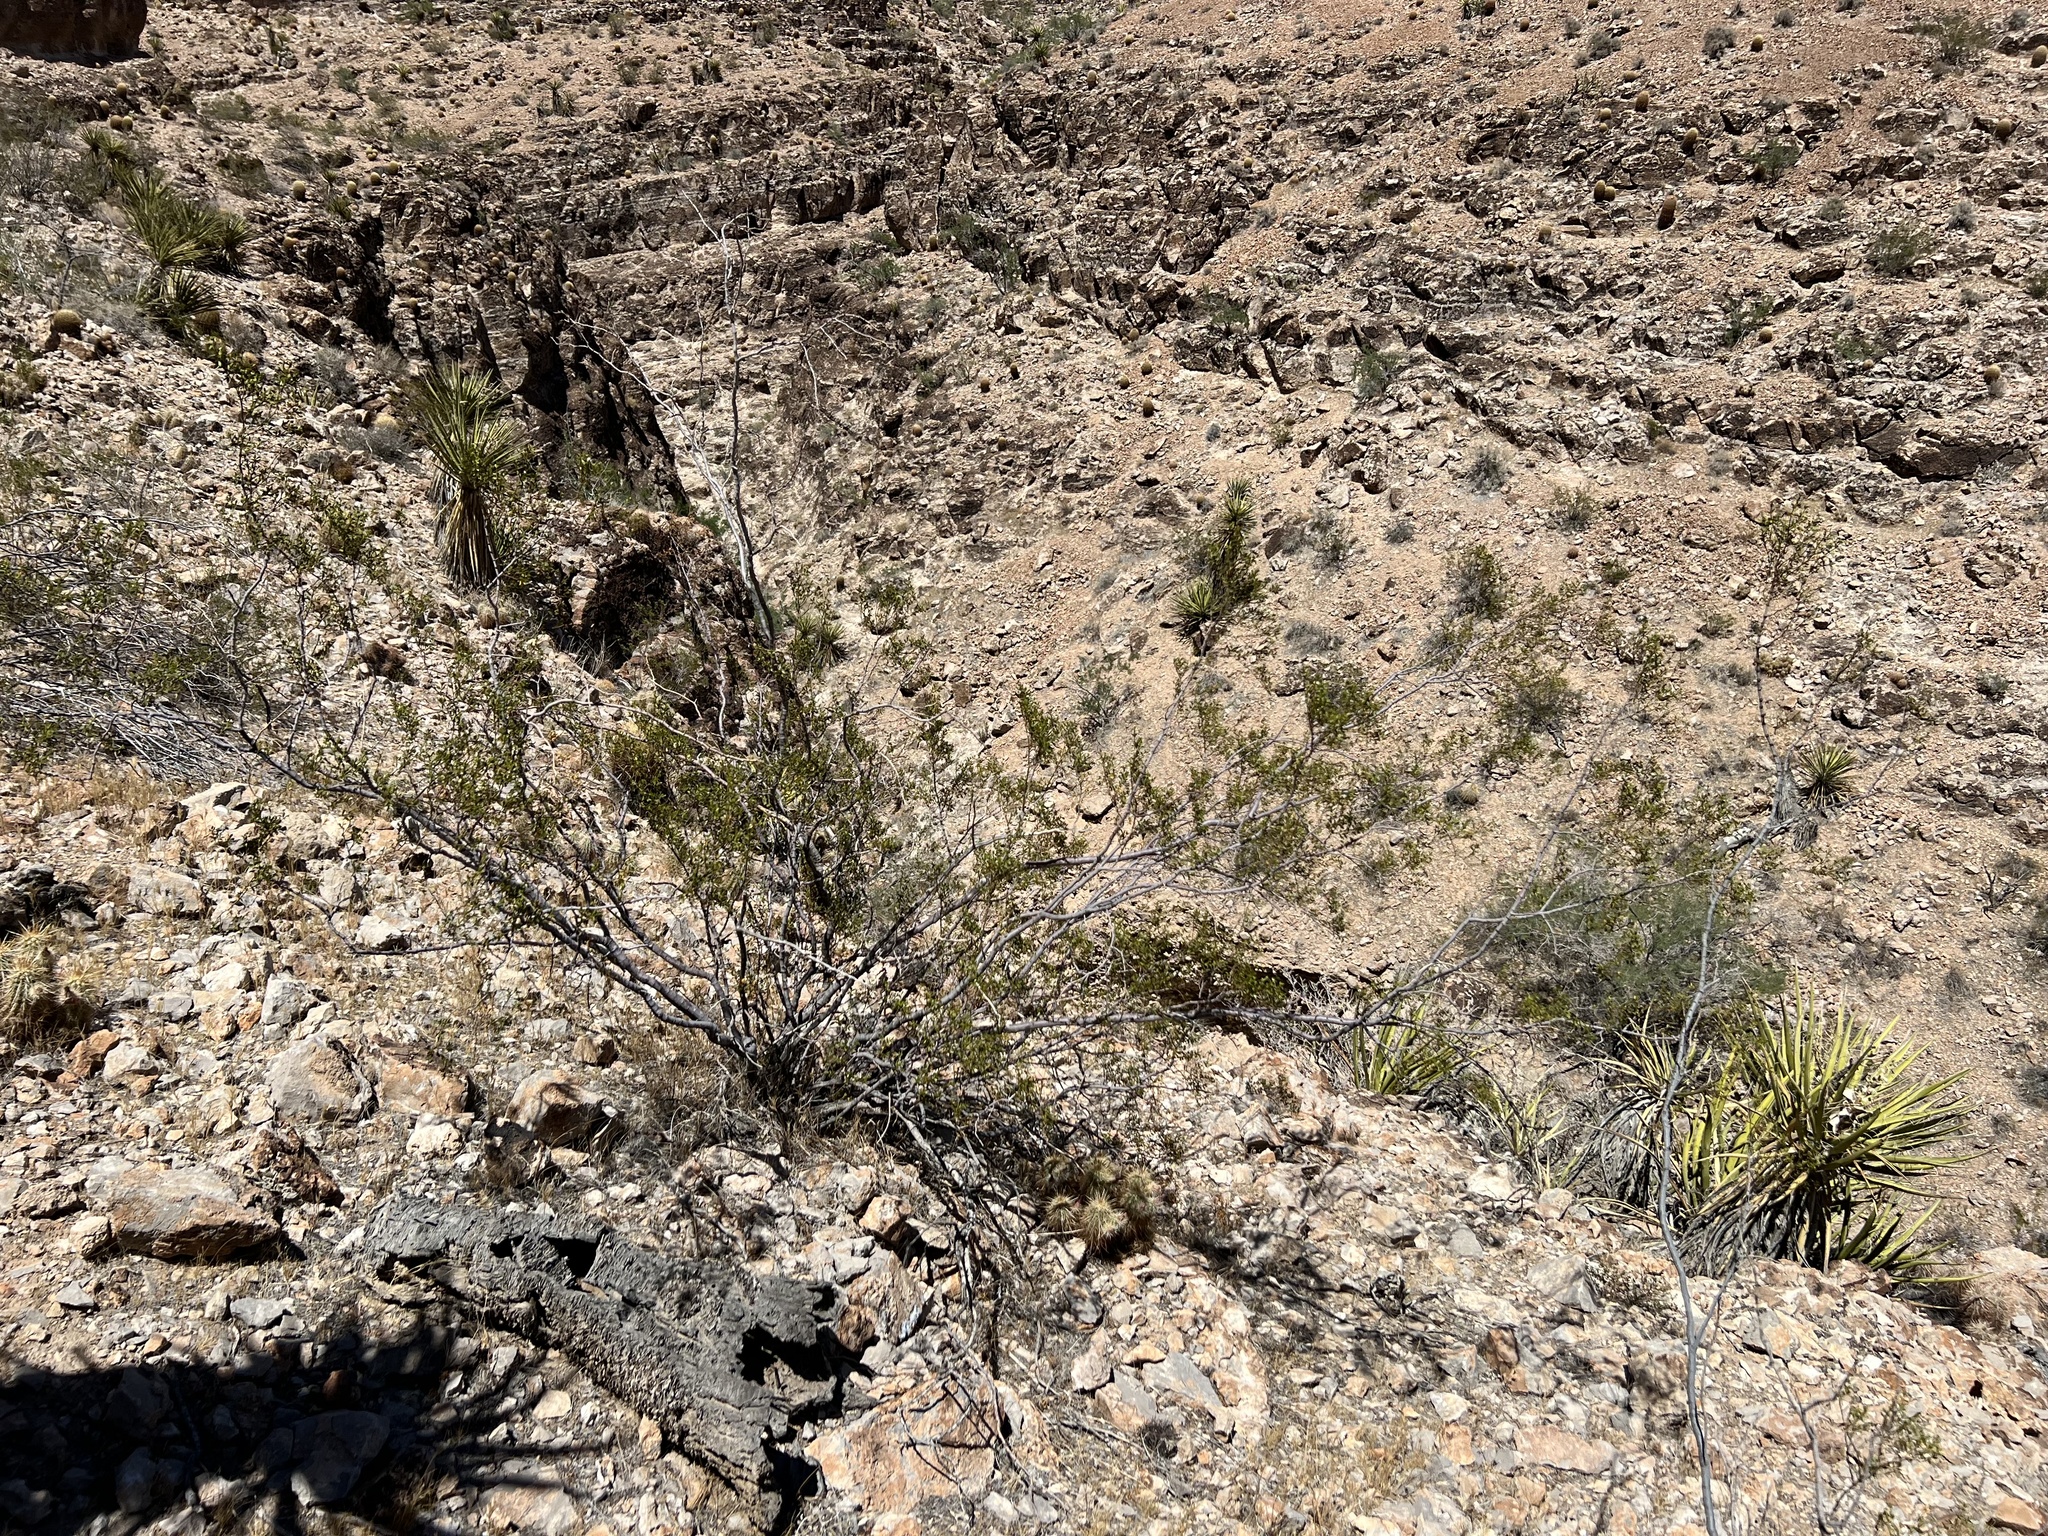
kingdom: Plantae
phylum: Tracheophyta
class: Magnoliopsida
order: Zygophyllales
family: Zygophyllaceae
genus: Larrea
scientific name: Larrea tridentata
